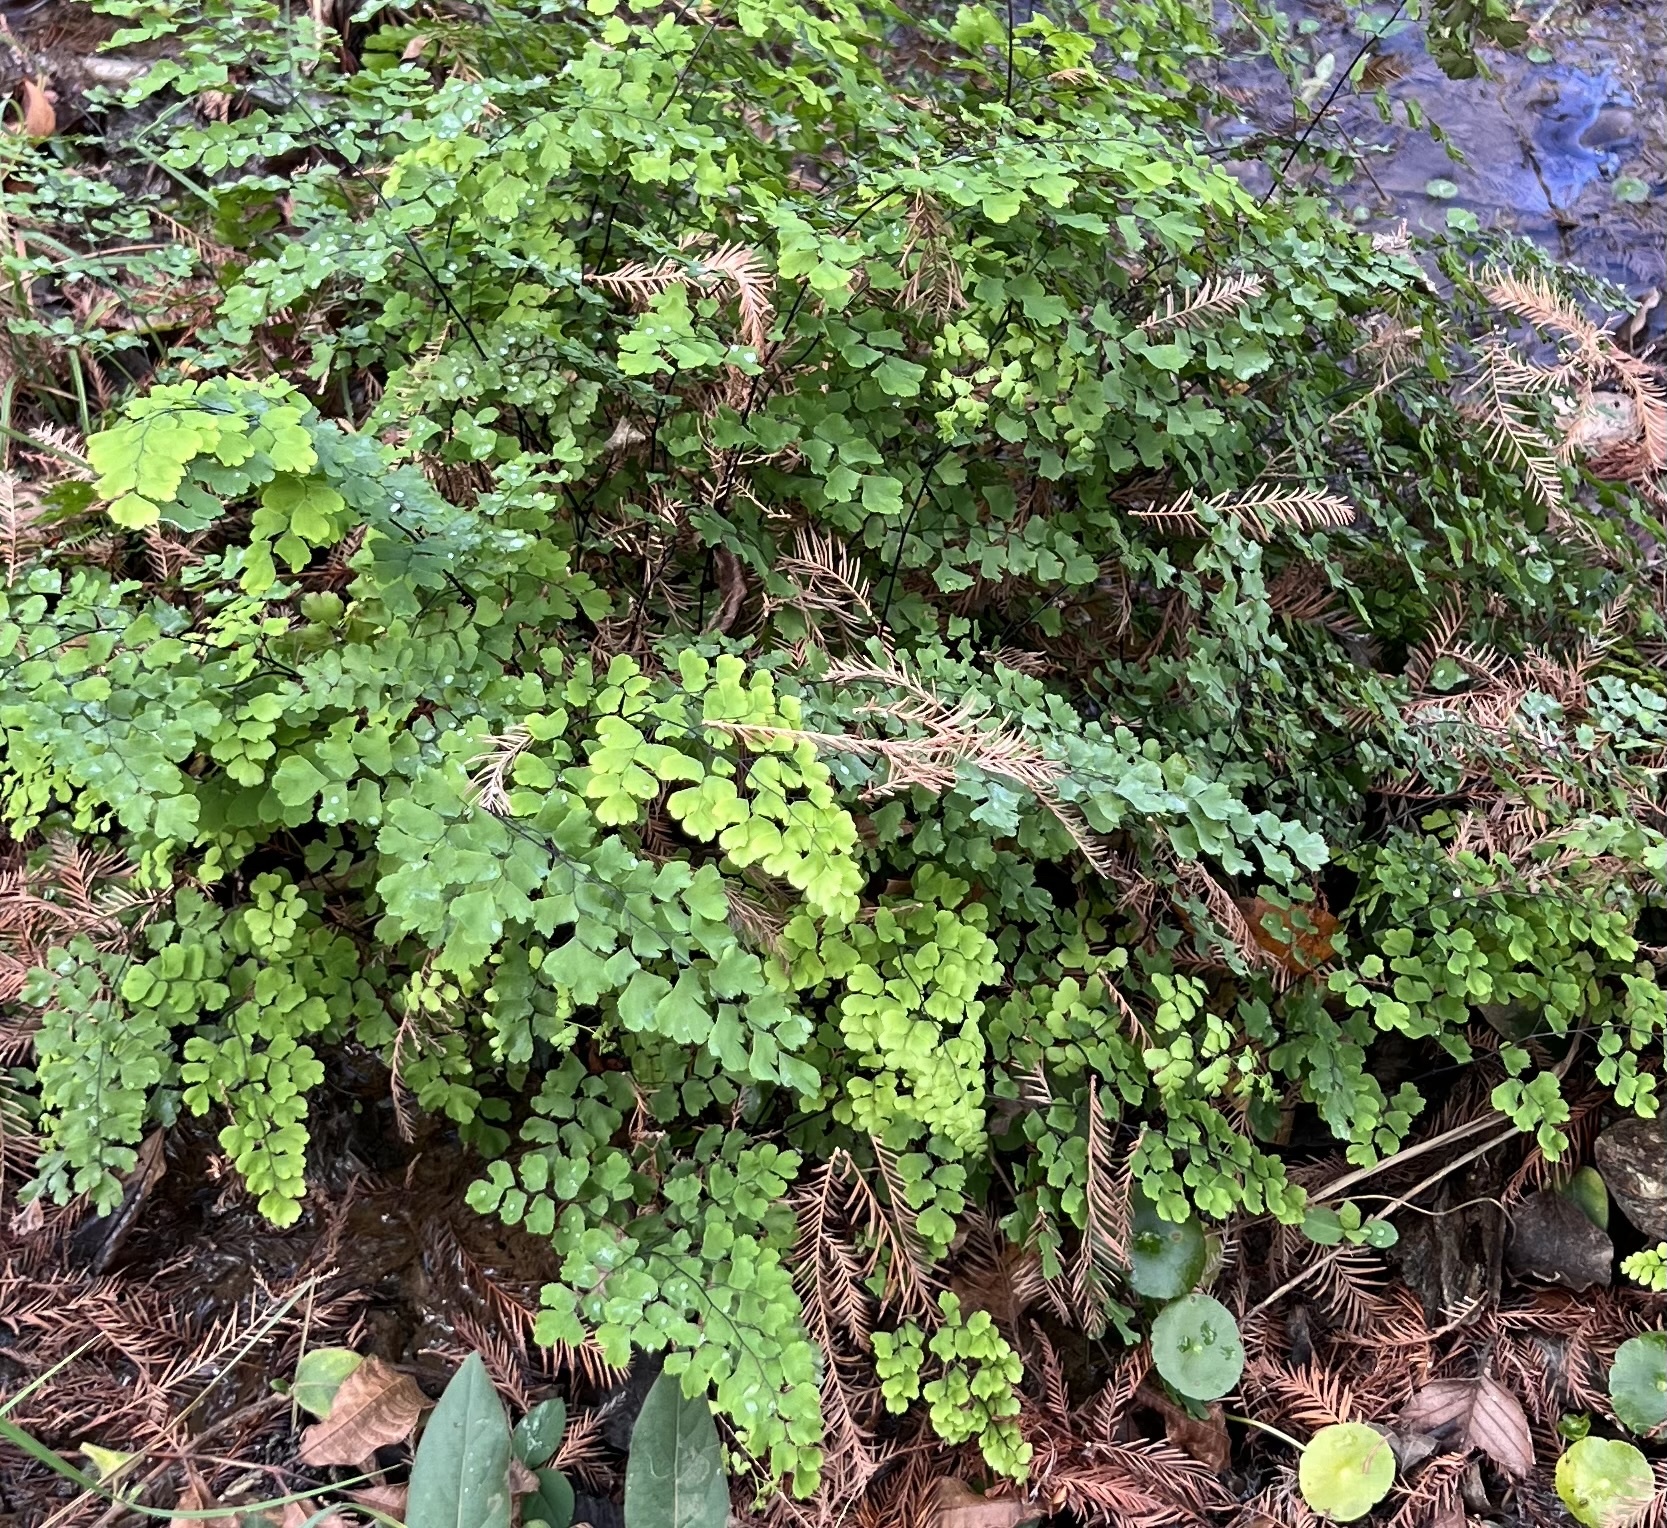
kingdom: Plantae
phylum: Tracheophyta
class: Polypodiopsida
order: Polypodiales
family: Pteridaceae
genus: Adiantum
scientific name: Adiantum capillus-veneris
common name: Maidenhair fern
